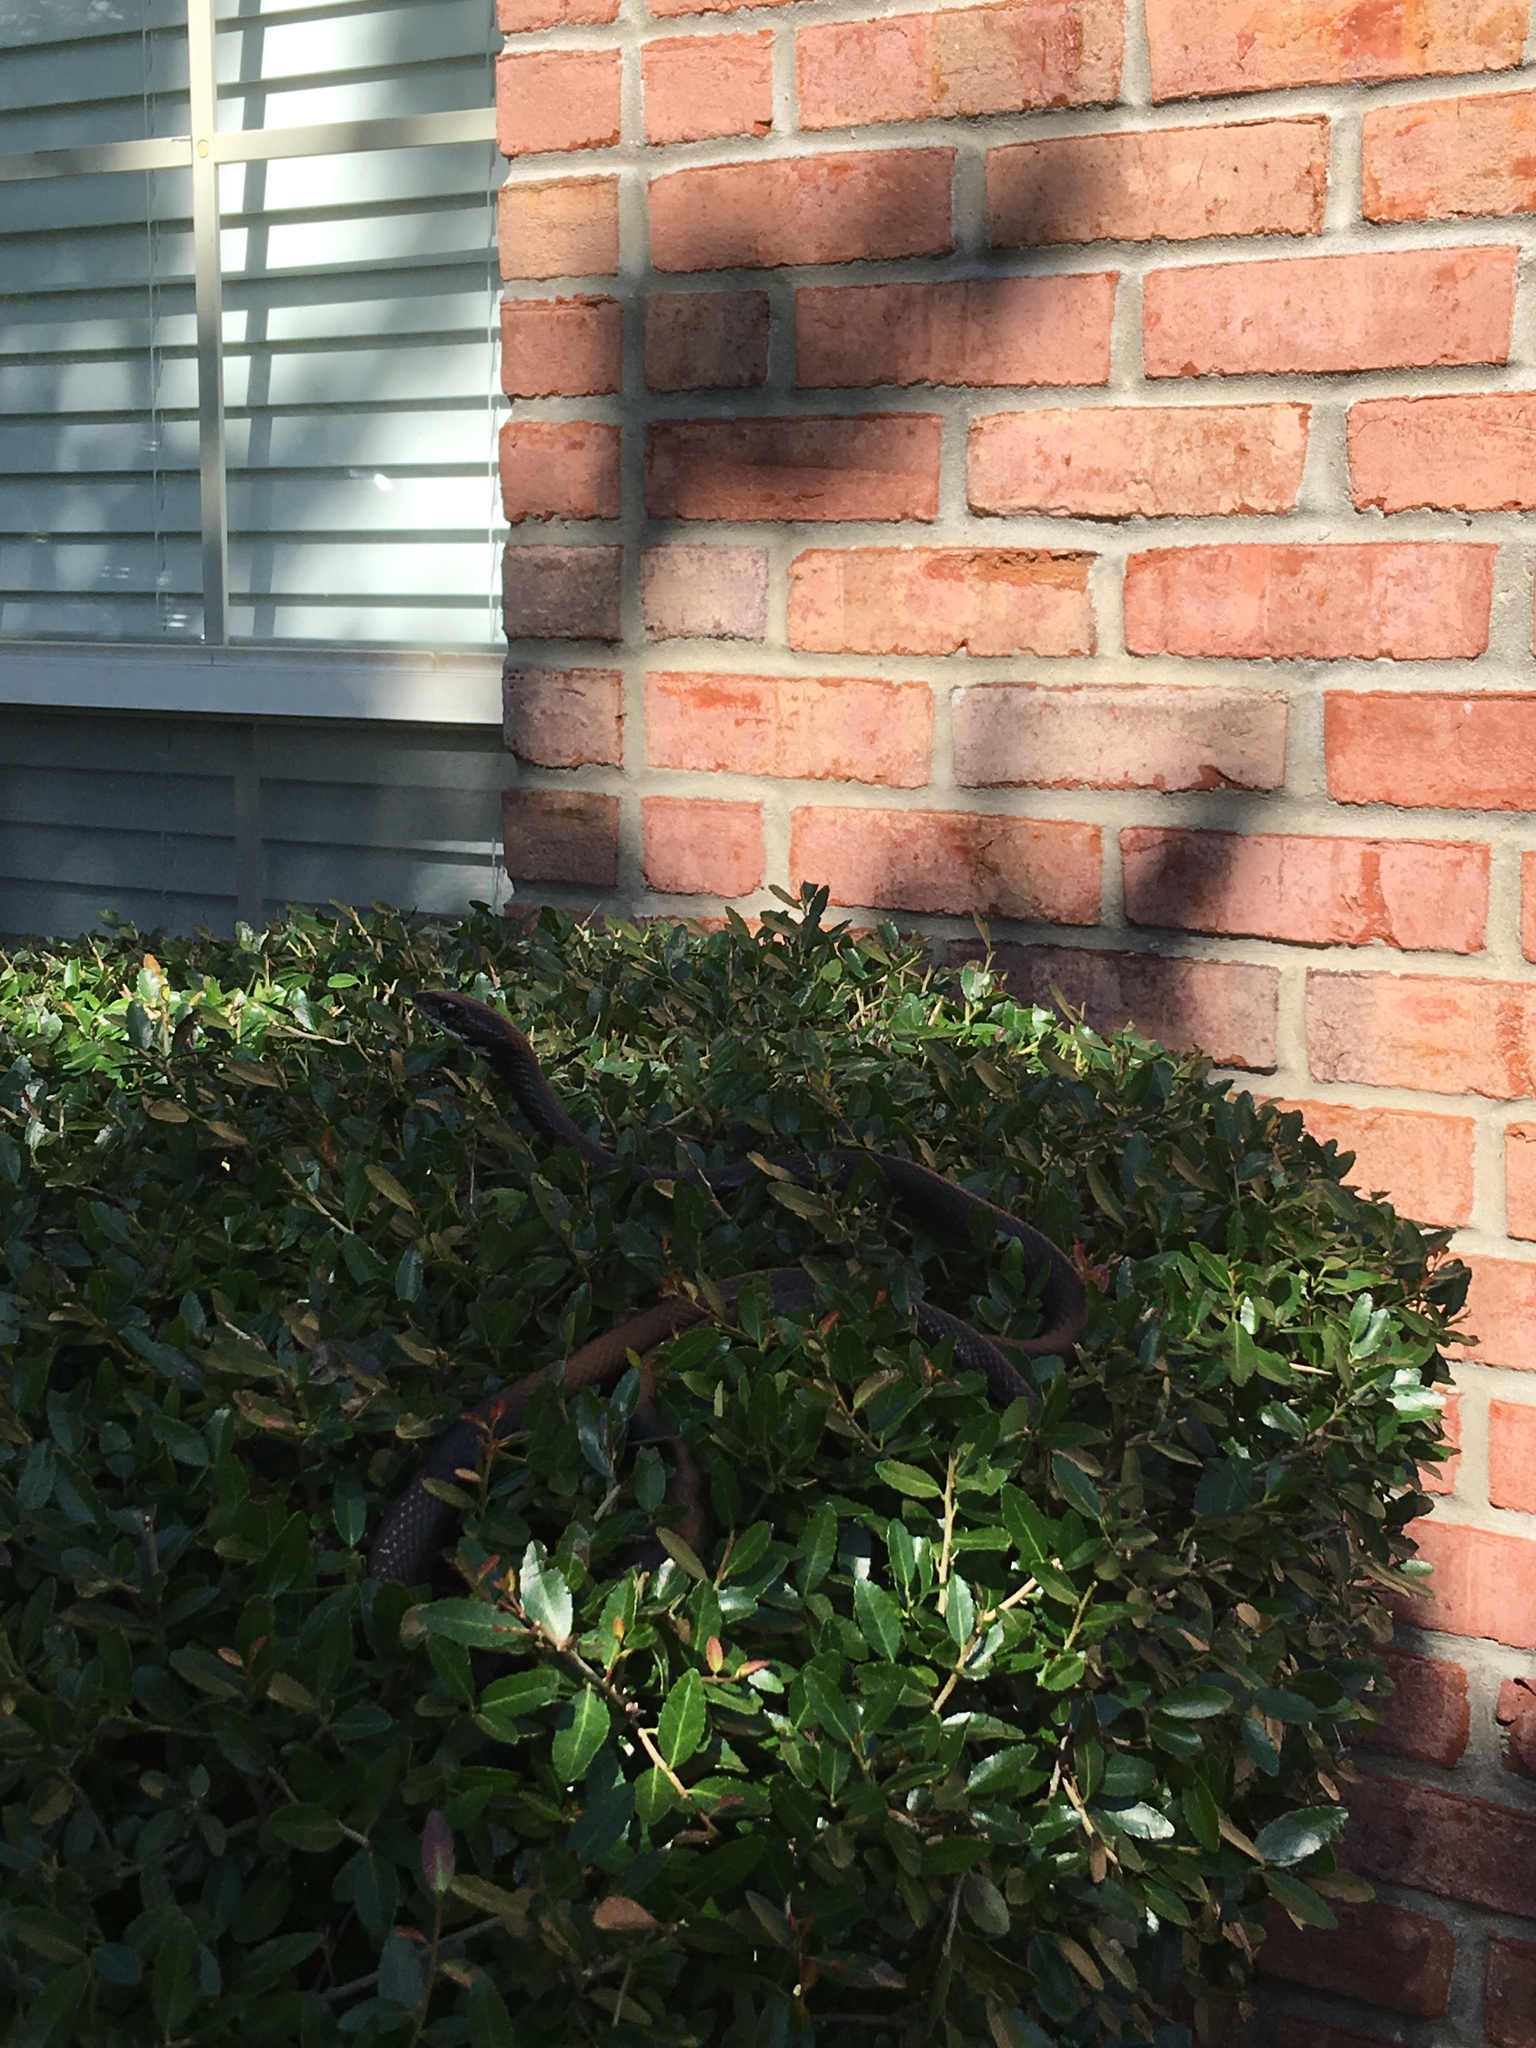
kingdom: Animalia
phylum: Chordata
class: Squamata
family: Colubridae
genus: Coluber
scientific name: Coluber constrictor
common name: Eastern racer
